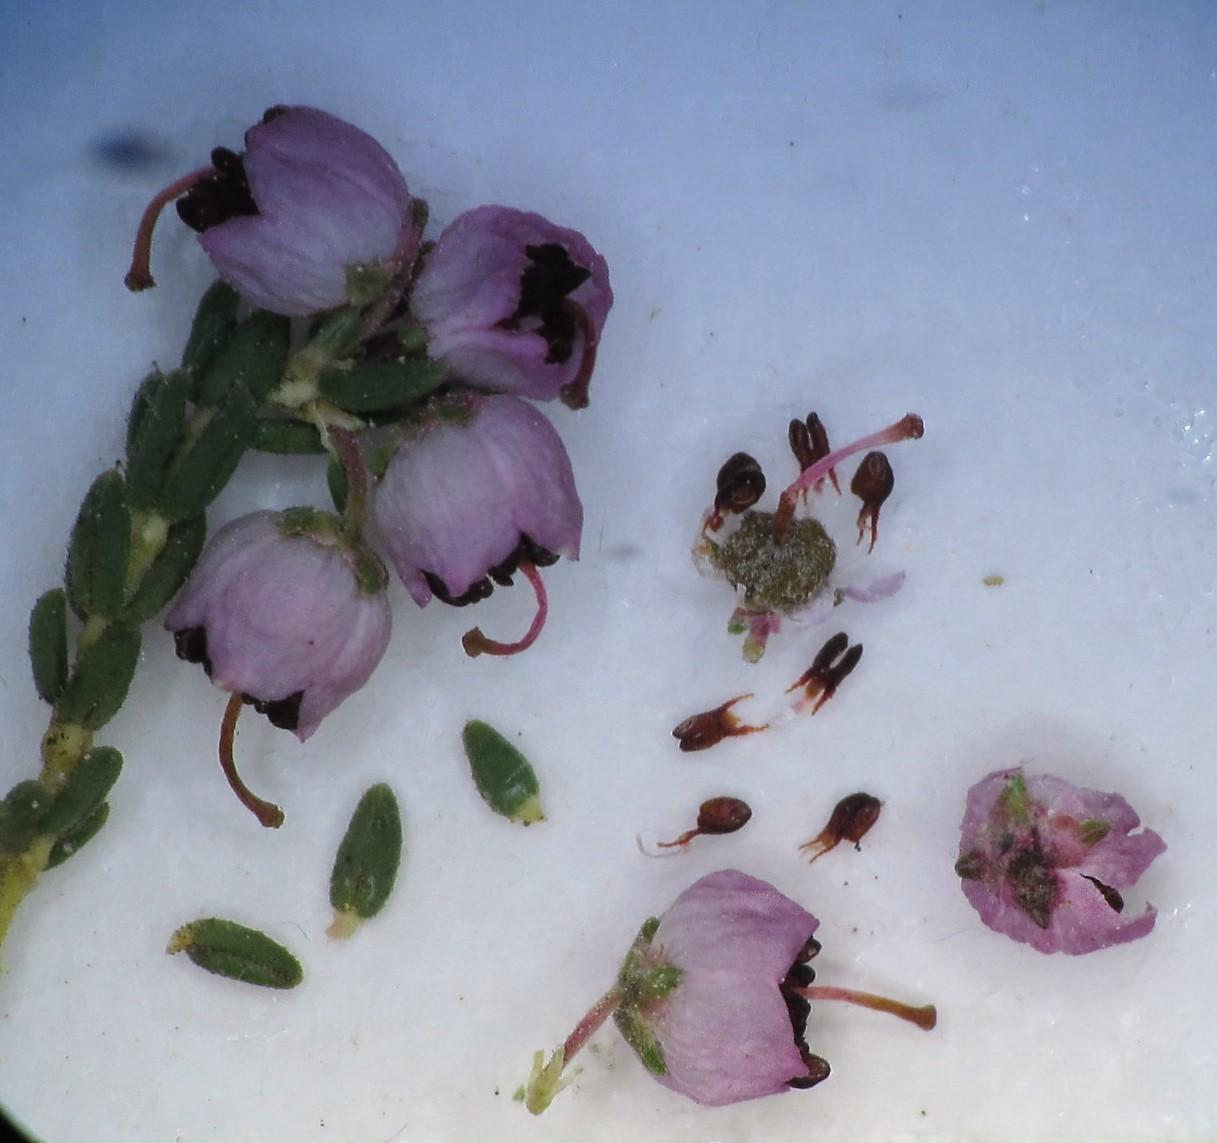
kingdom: Plantae
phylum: Tracheophyta
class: Magnoliopsida
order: Ericales
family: Ericaceae
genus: Erica
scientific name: Erica bicolor
